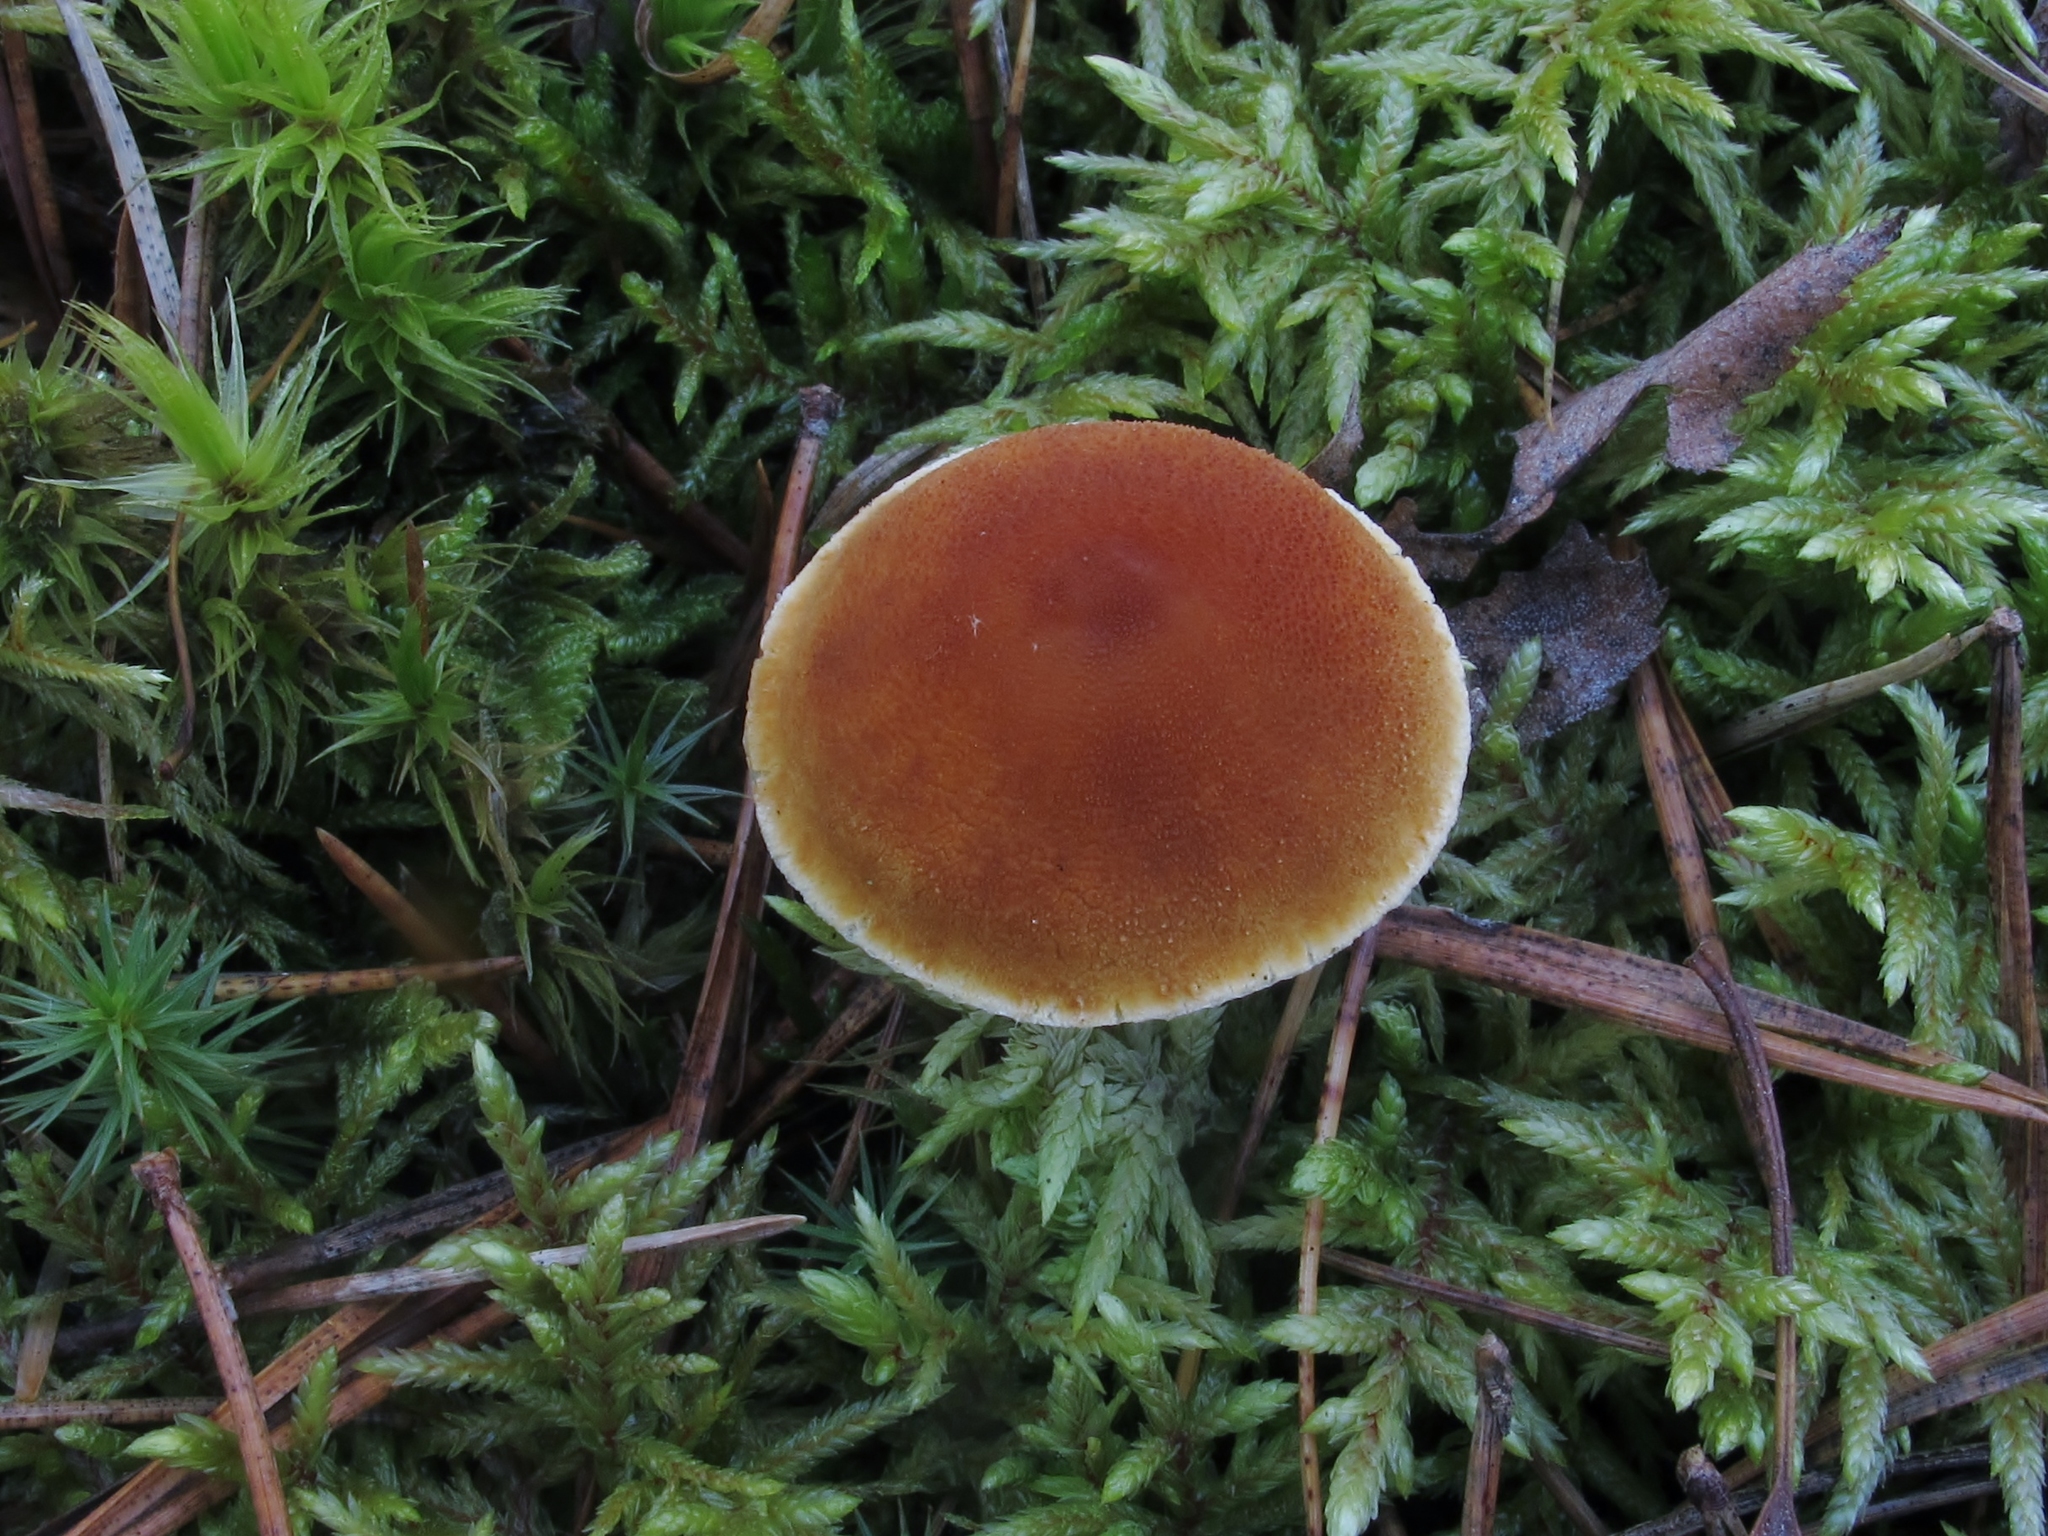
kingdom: Fungi
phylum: Basidiomycota
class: Agaricomycetes
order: Agaricales
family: Tricholomataceae
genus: Cystoderma
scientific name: Cystoderma jasonis
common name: Pine powdercap
